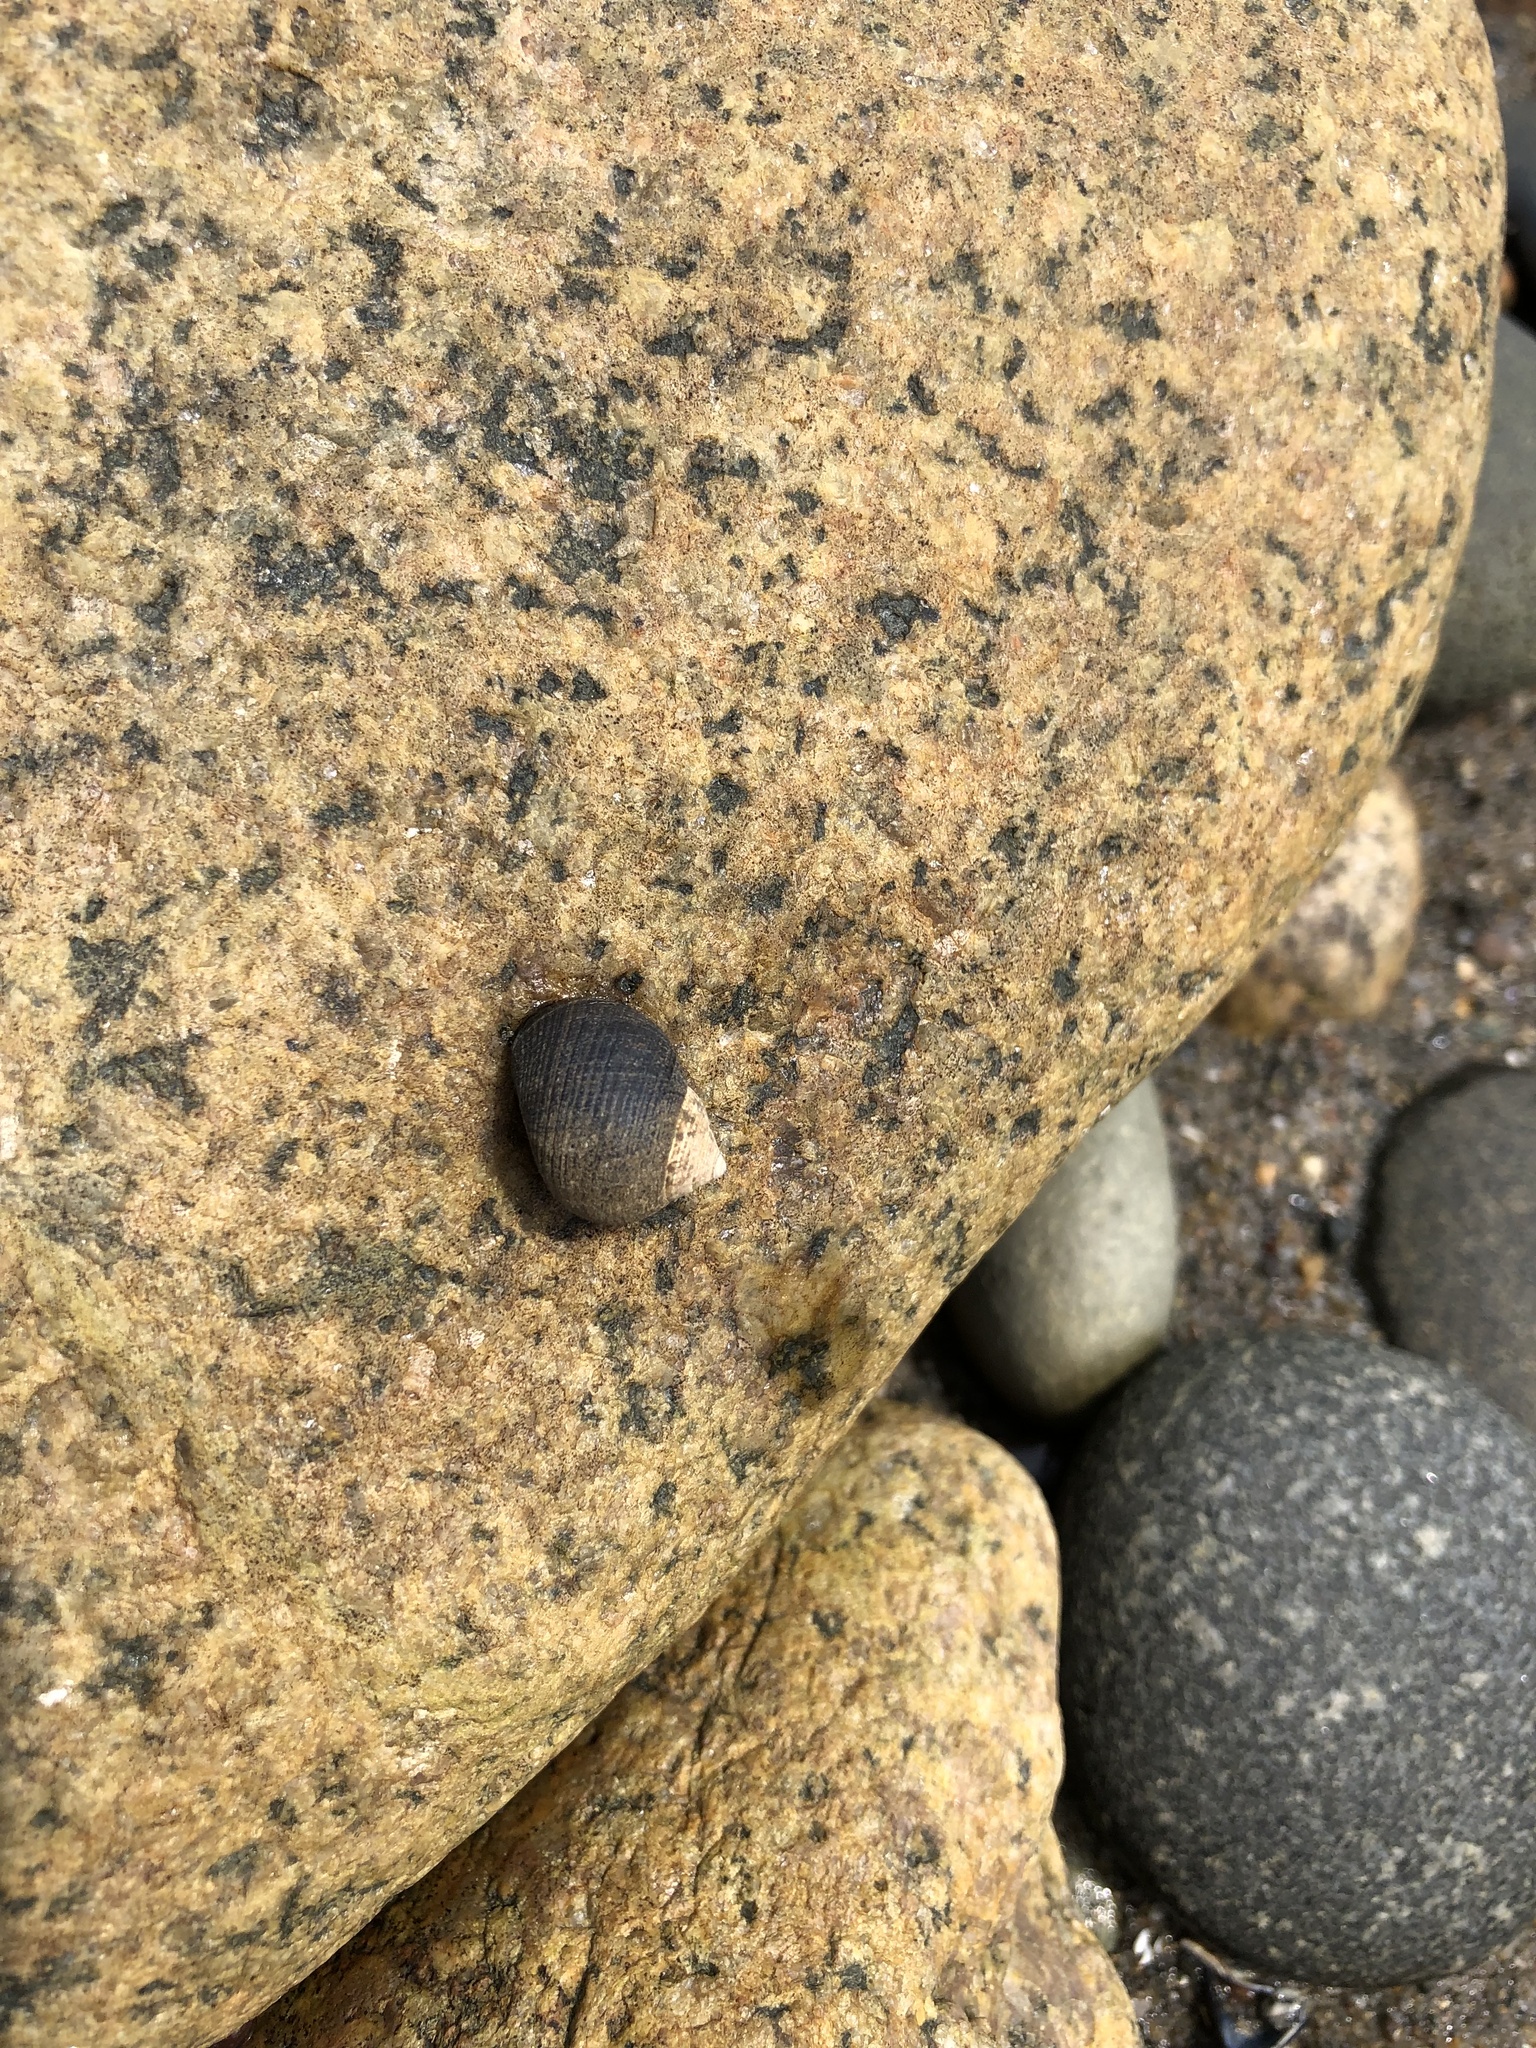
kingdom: Animalia
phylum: Mollusca
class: Gastropoda
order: Littorinimorpha
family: Littorinidae
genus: Littorina
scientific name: Littorina littorea
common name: Common periwinkle
